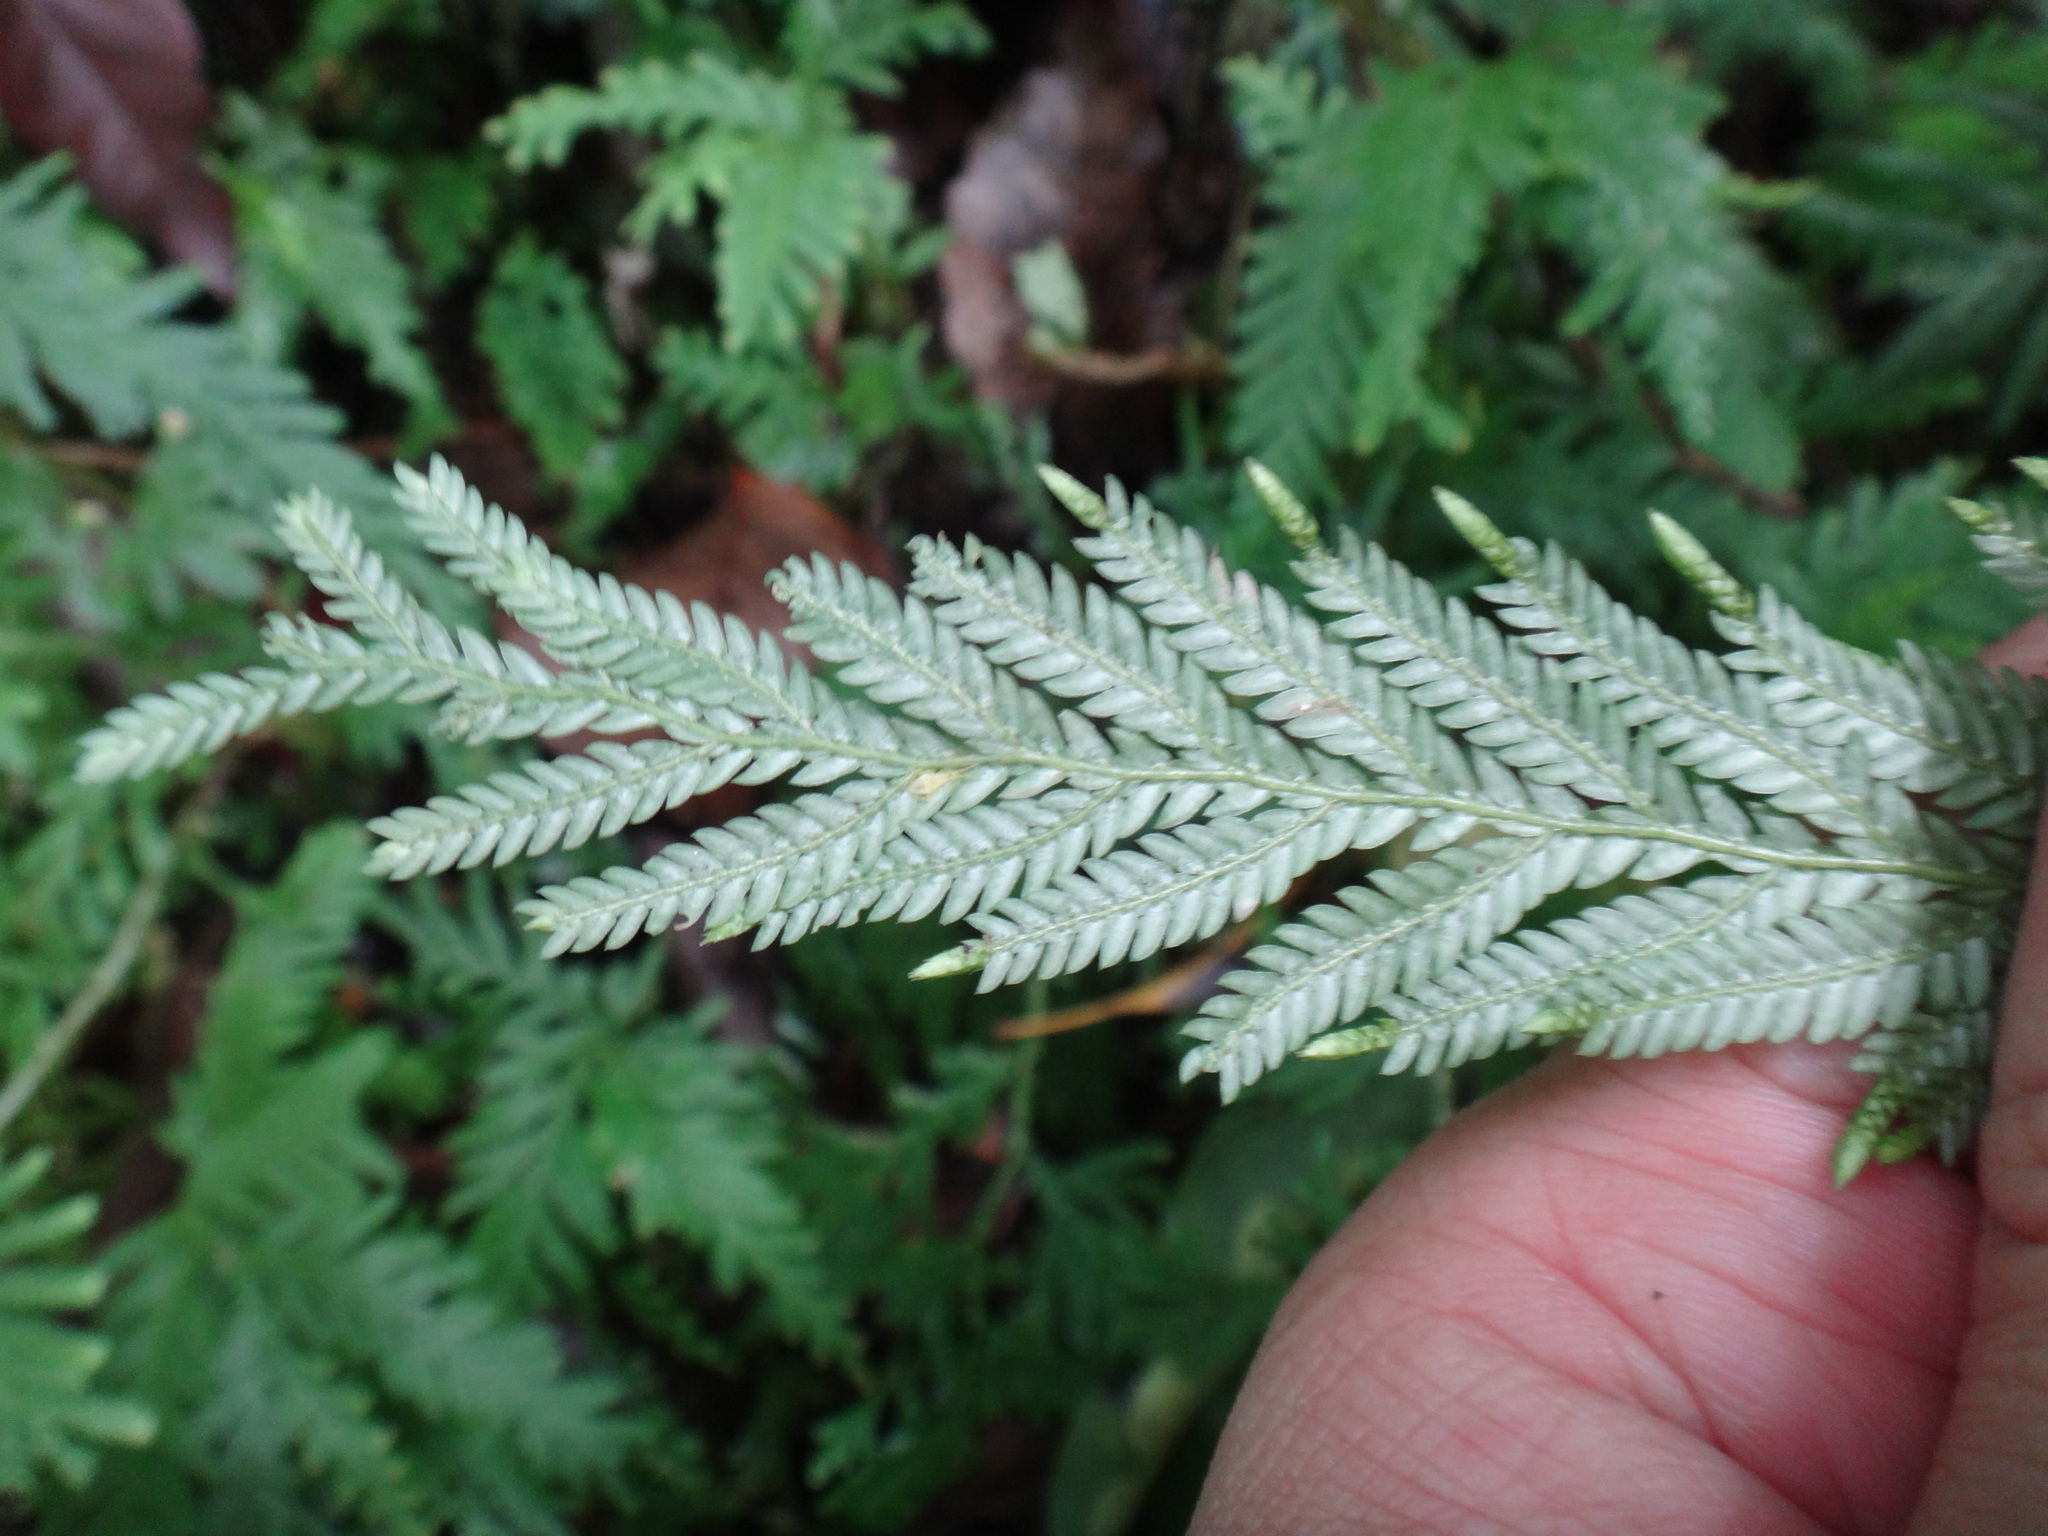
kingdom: Plantae
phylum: Tracheophyta
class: Lycopodiopsida
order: Selaginellales
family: Selaginellaceae
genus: Selaginella
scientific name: Selaginella delicatula
